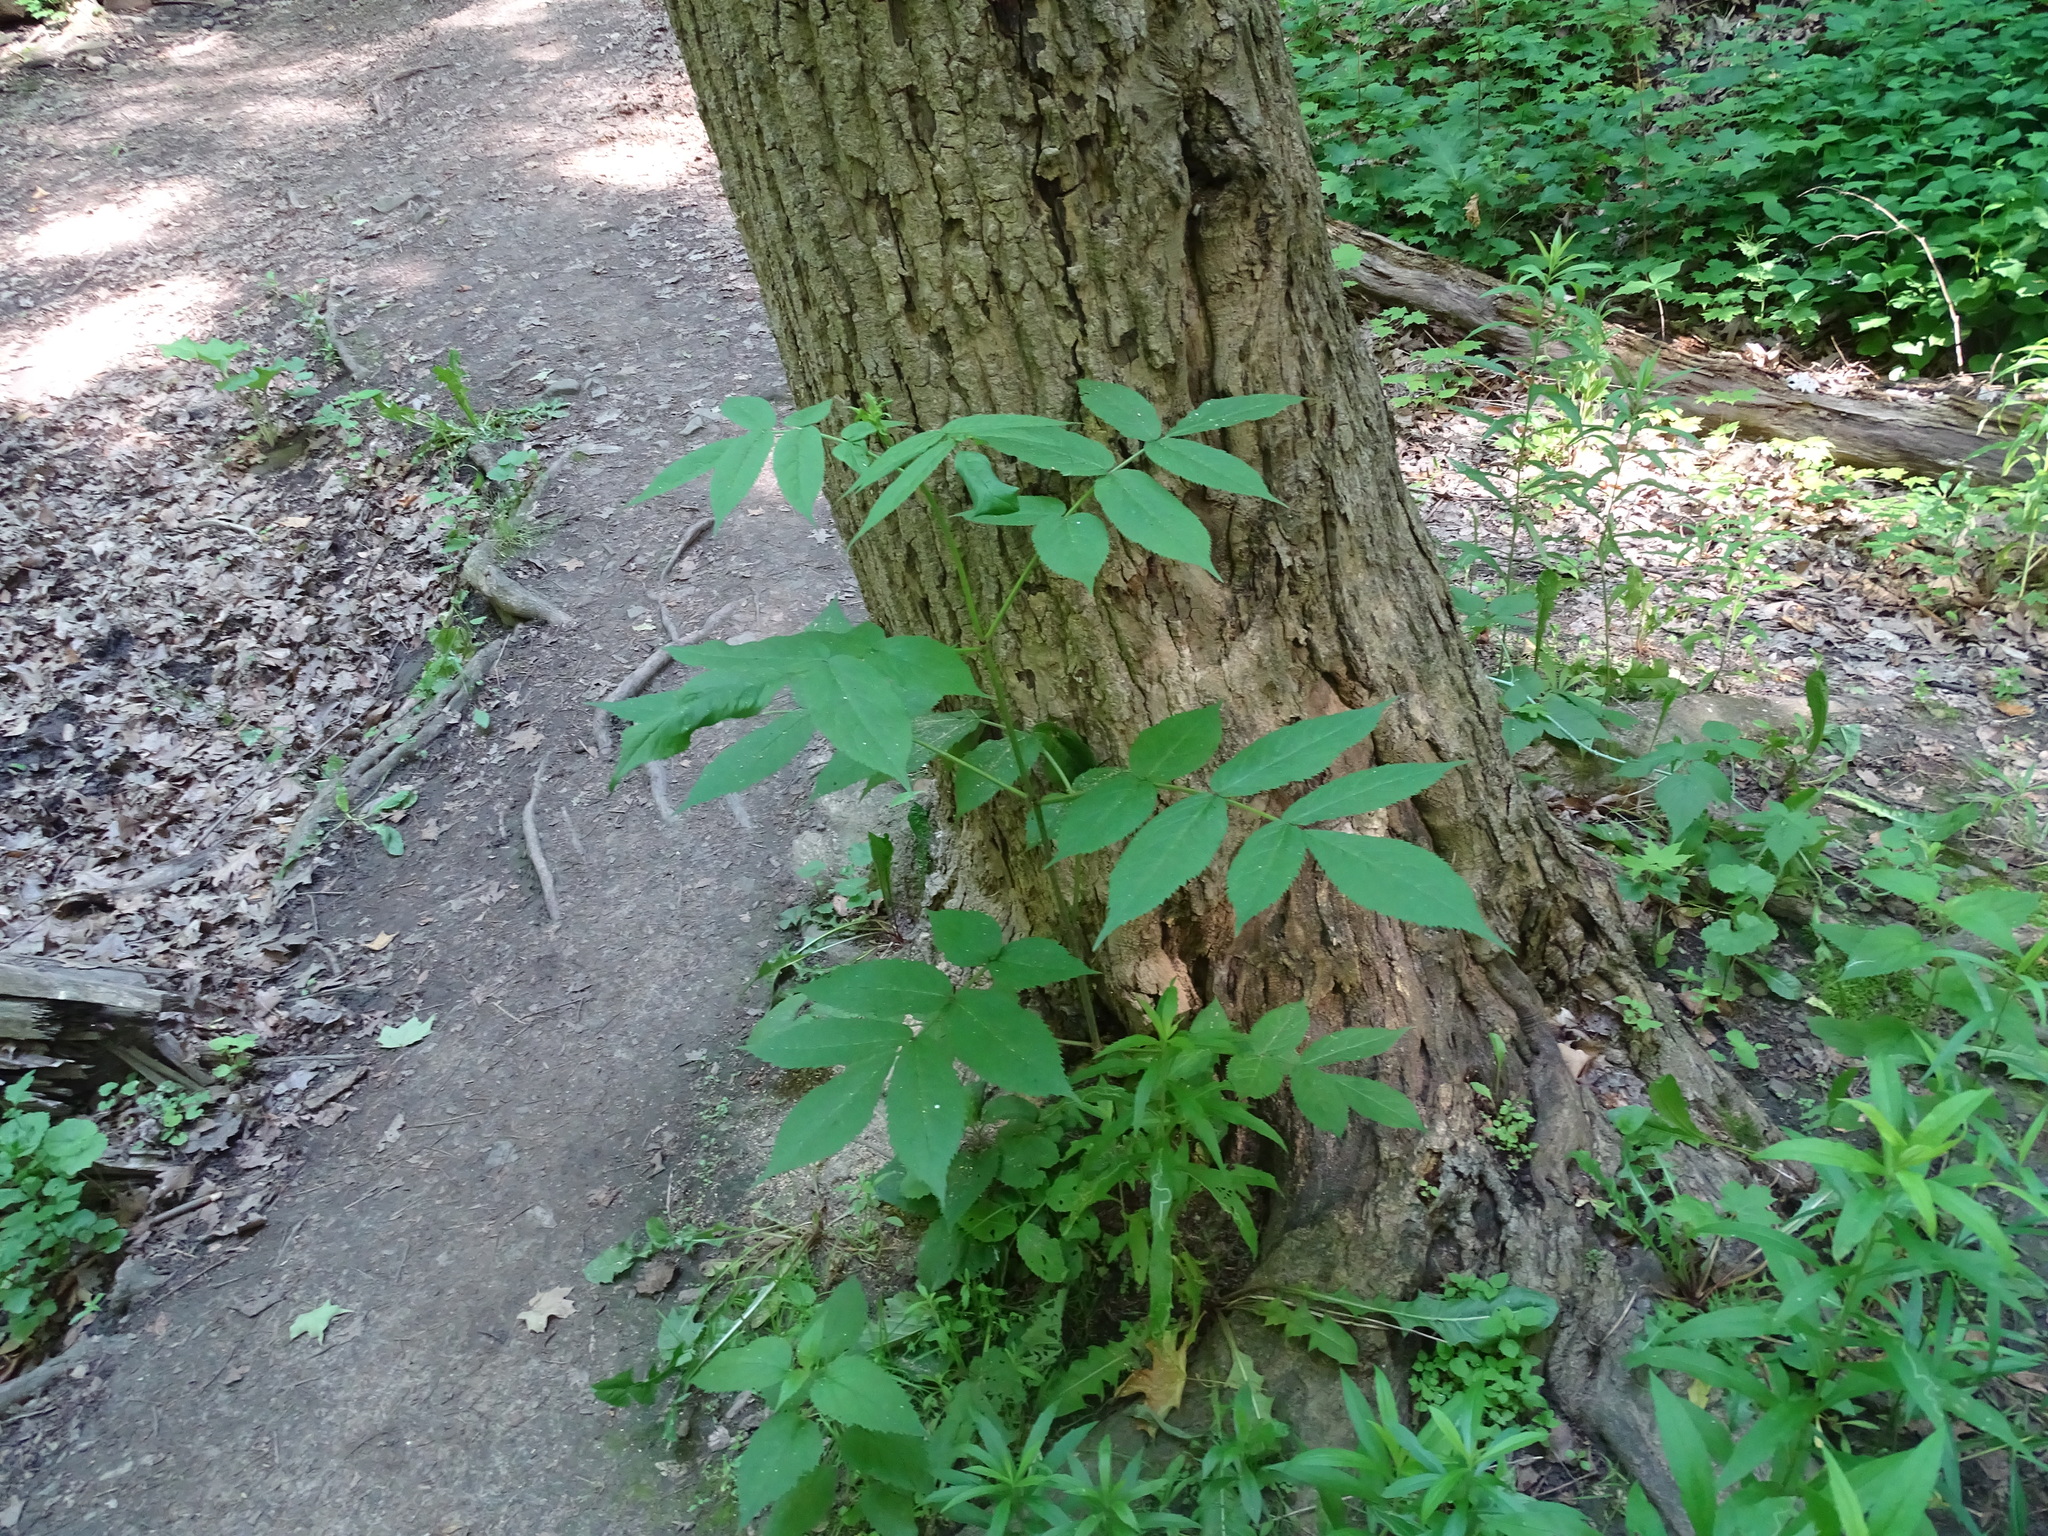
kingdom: Plantae
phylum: Tracheophyta
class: Magnoliopsida
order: Dipsacales
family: Viburnaceae
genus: Sambucus
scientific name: Sambucus racemosa
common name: Red-berried elder
